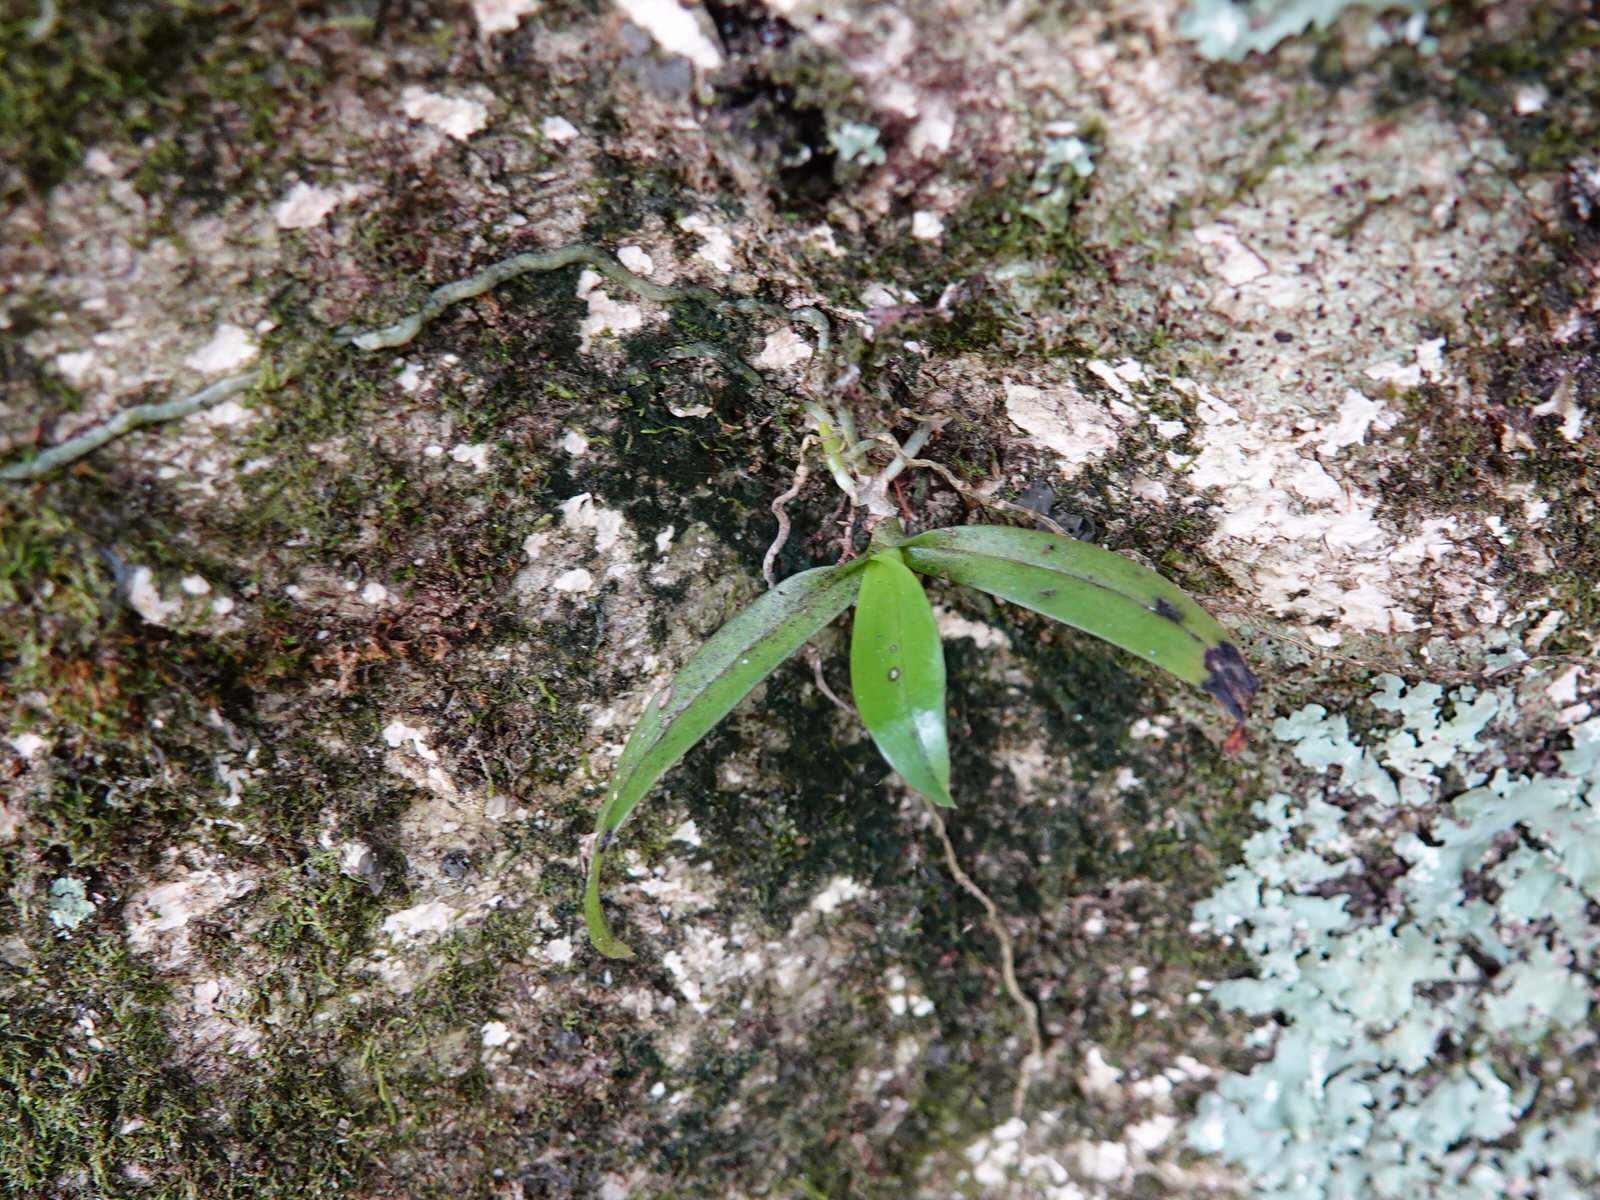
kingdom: Plantae
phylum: Tracheophyta
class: Liliopsida
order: Asparagales
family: Orchidaceae
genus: Drymoanthus
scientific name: Drymoanthus adversus
